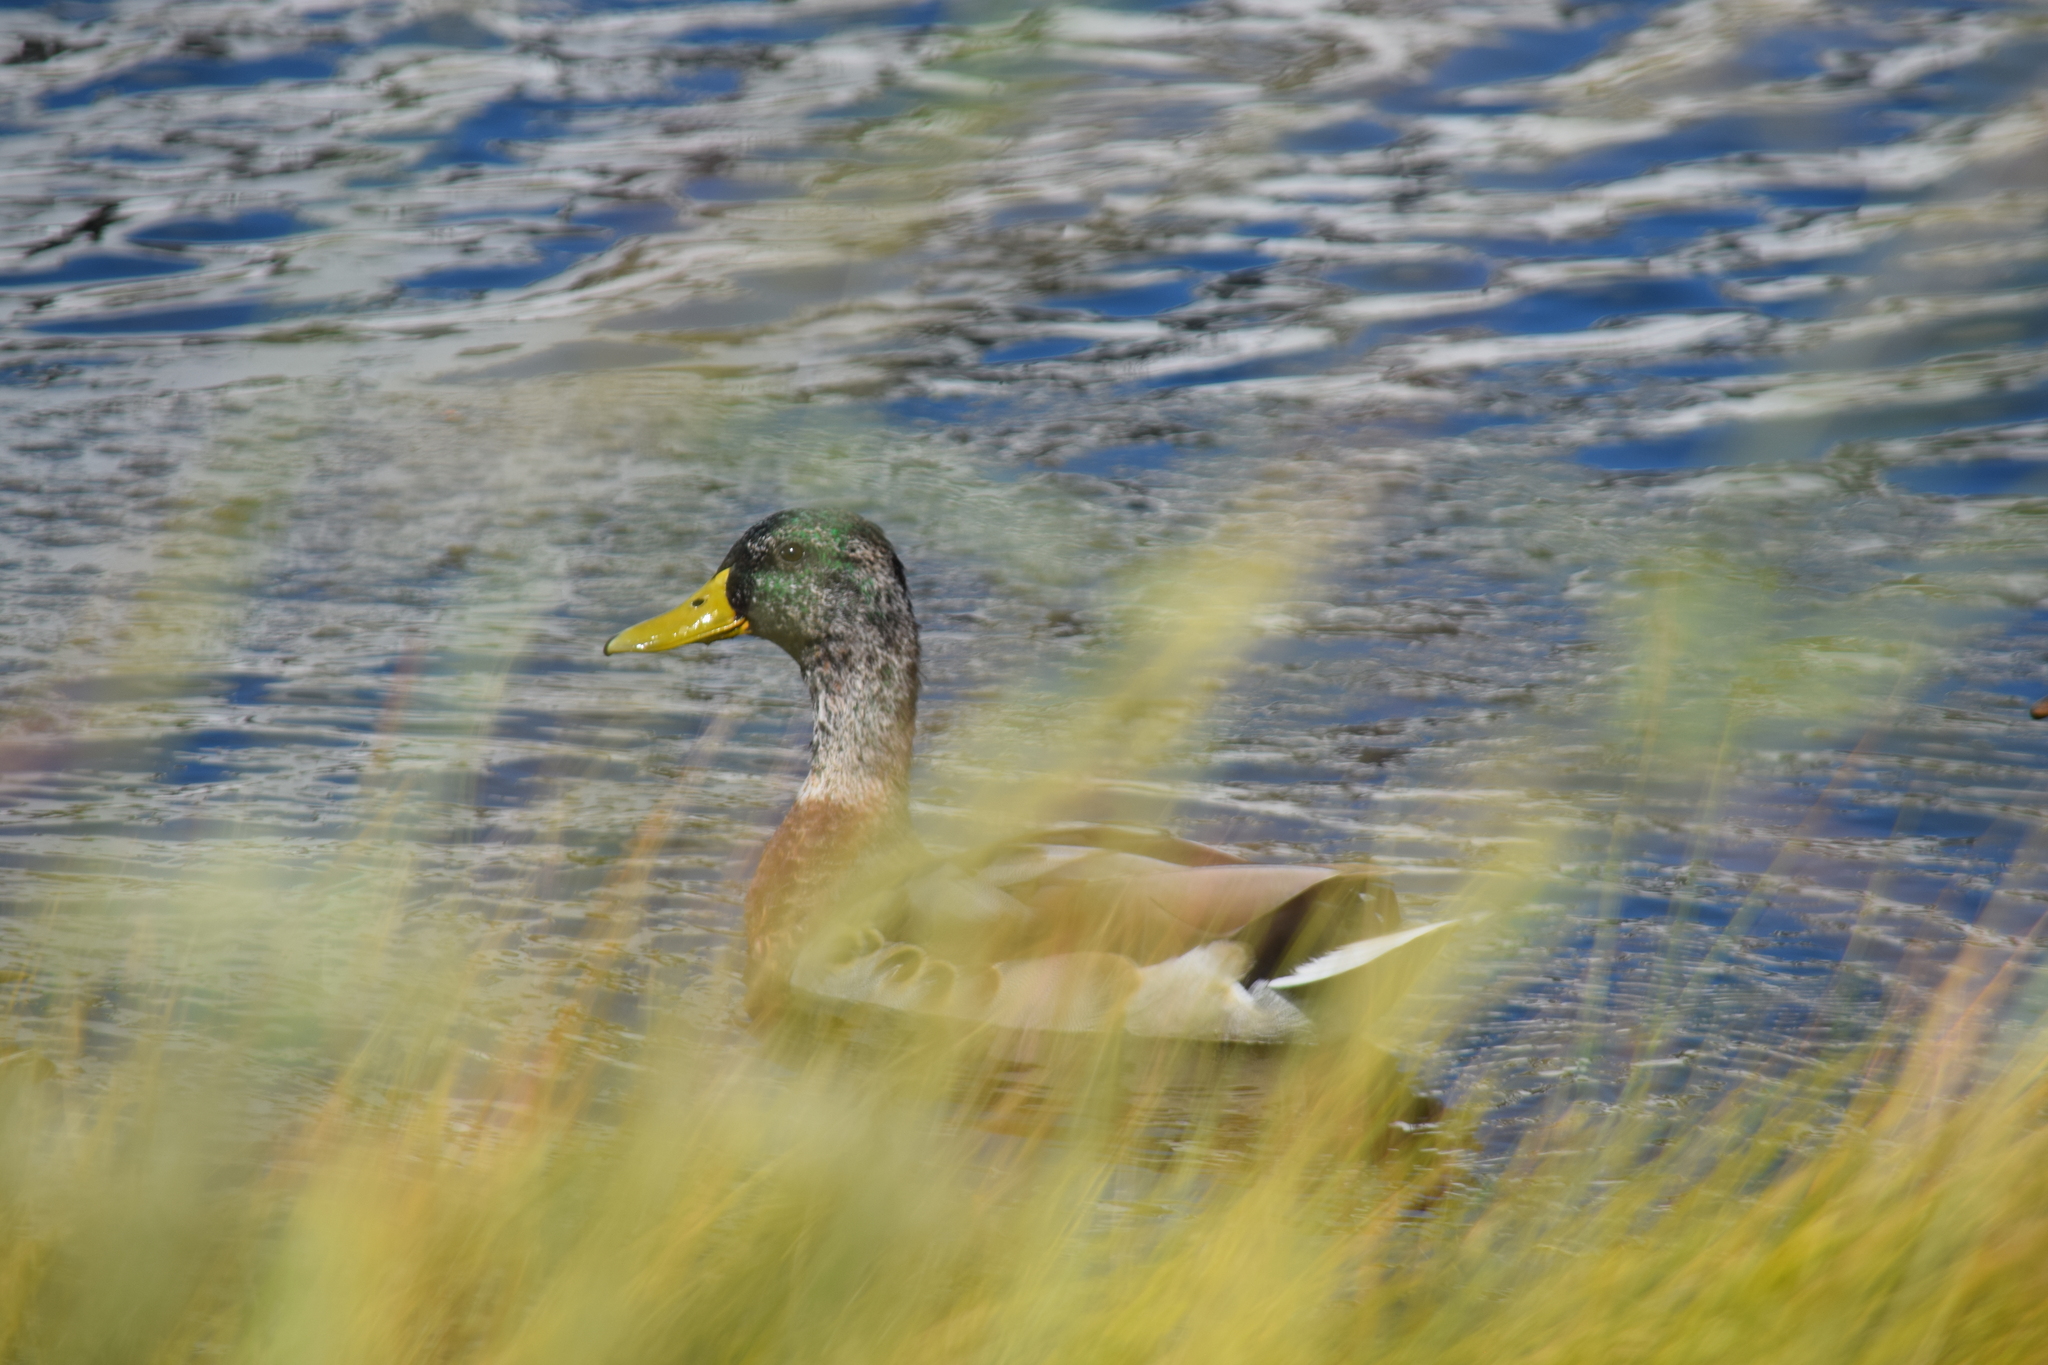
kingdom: Animalia
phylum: Chordata
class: Aves
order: Anseriformes
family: Anatidae
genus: Anas
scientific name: Anas platyrhynchos
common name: Mallard
